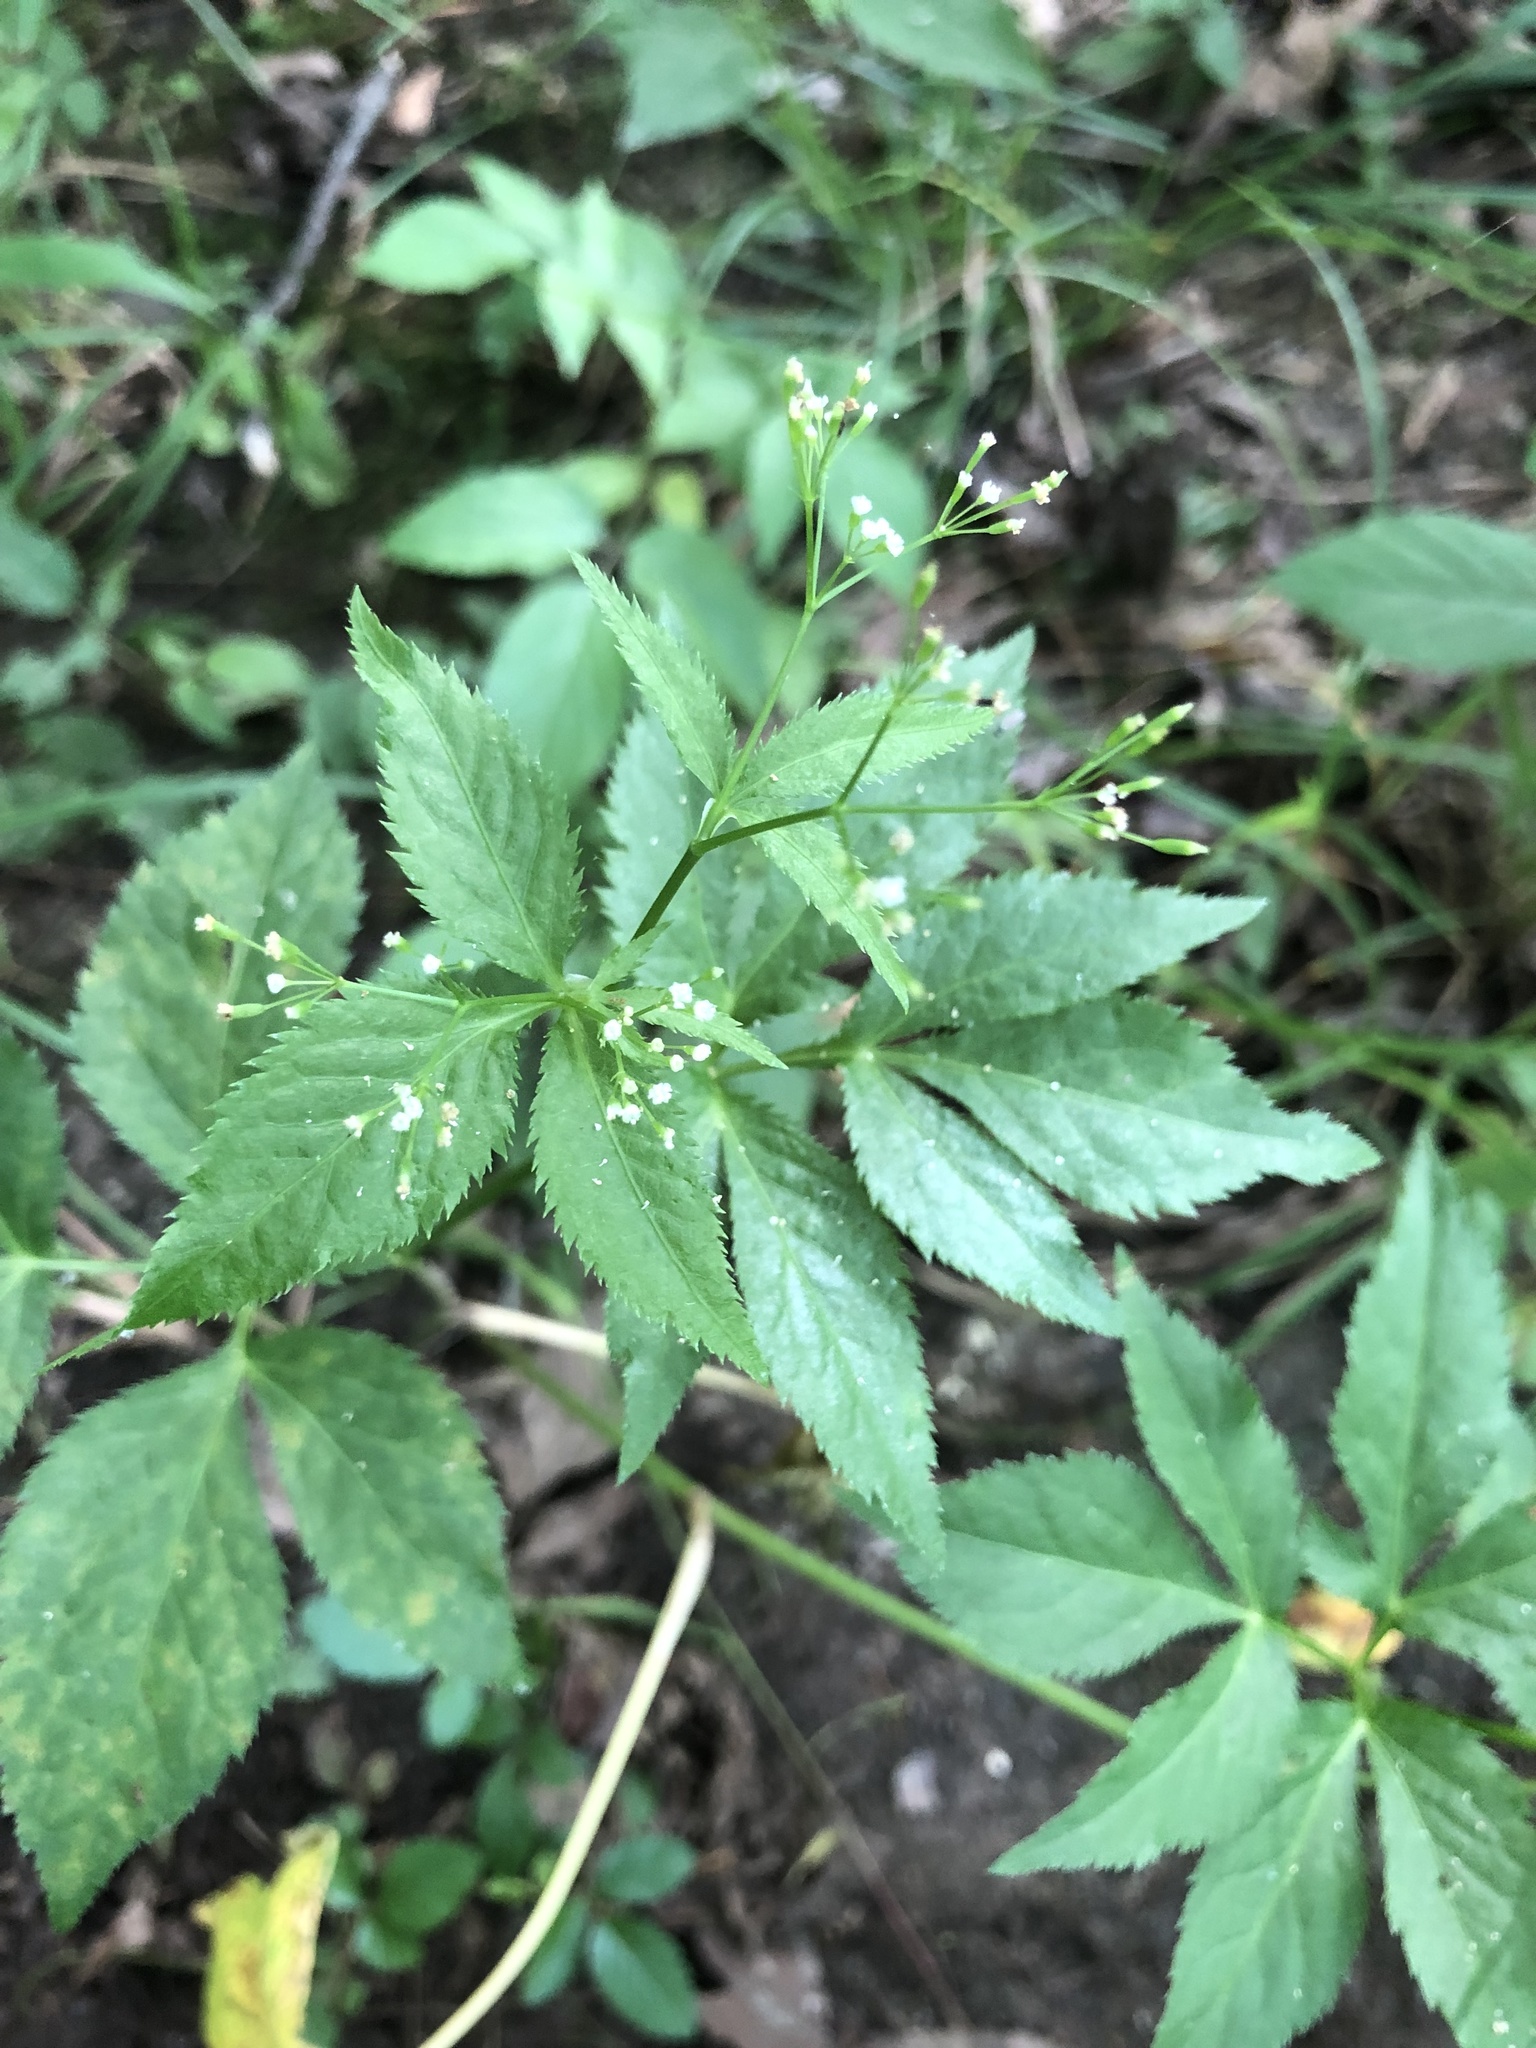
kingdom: Plantae
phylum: Tracheophyta
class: Magnoliopsida
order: Apiales
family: Apiaceae
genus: Cryptotaenia
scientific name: Cryptotaenia canadensis
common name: Honewort
